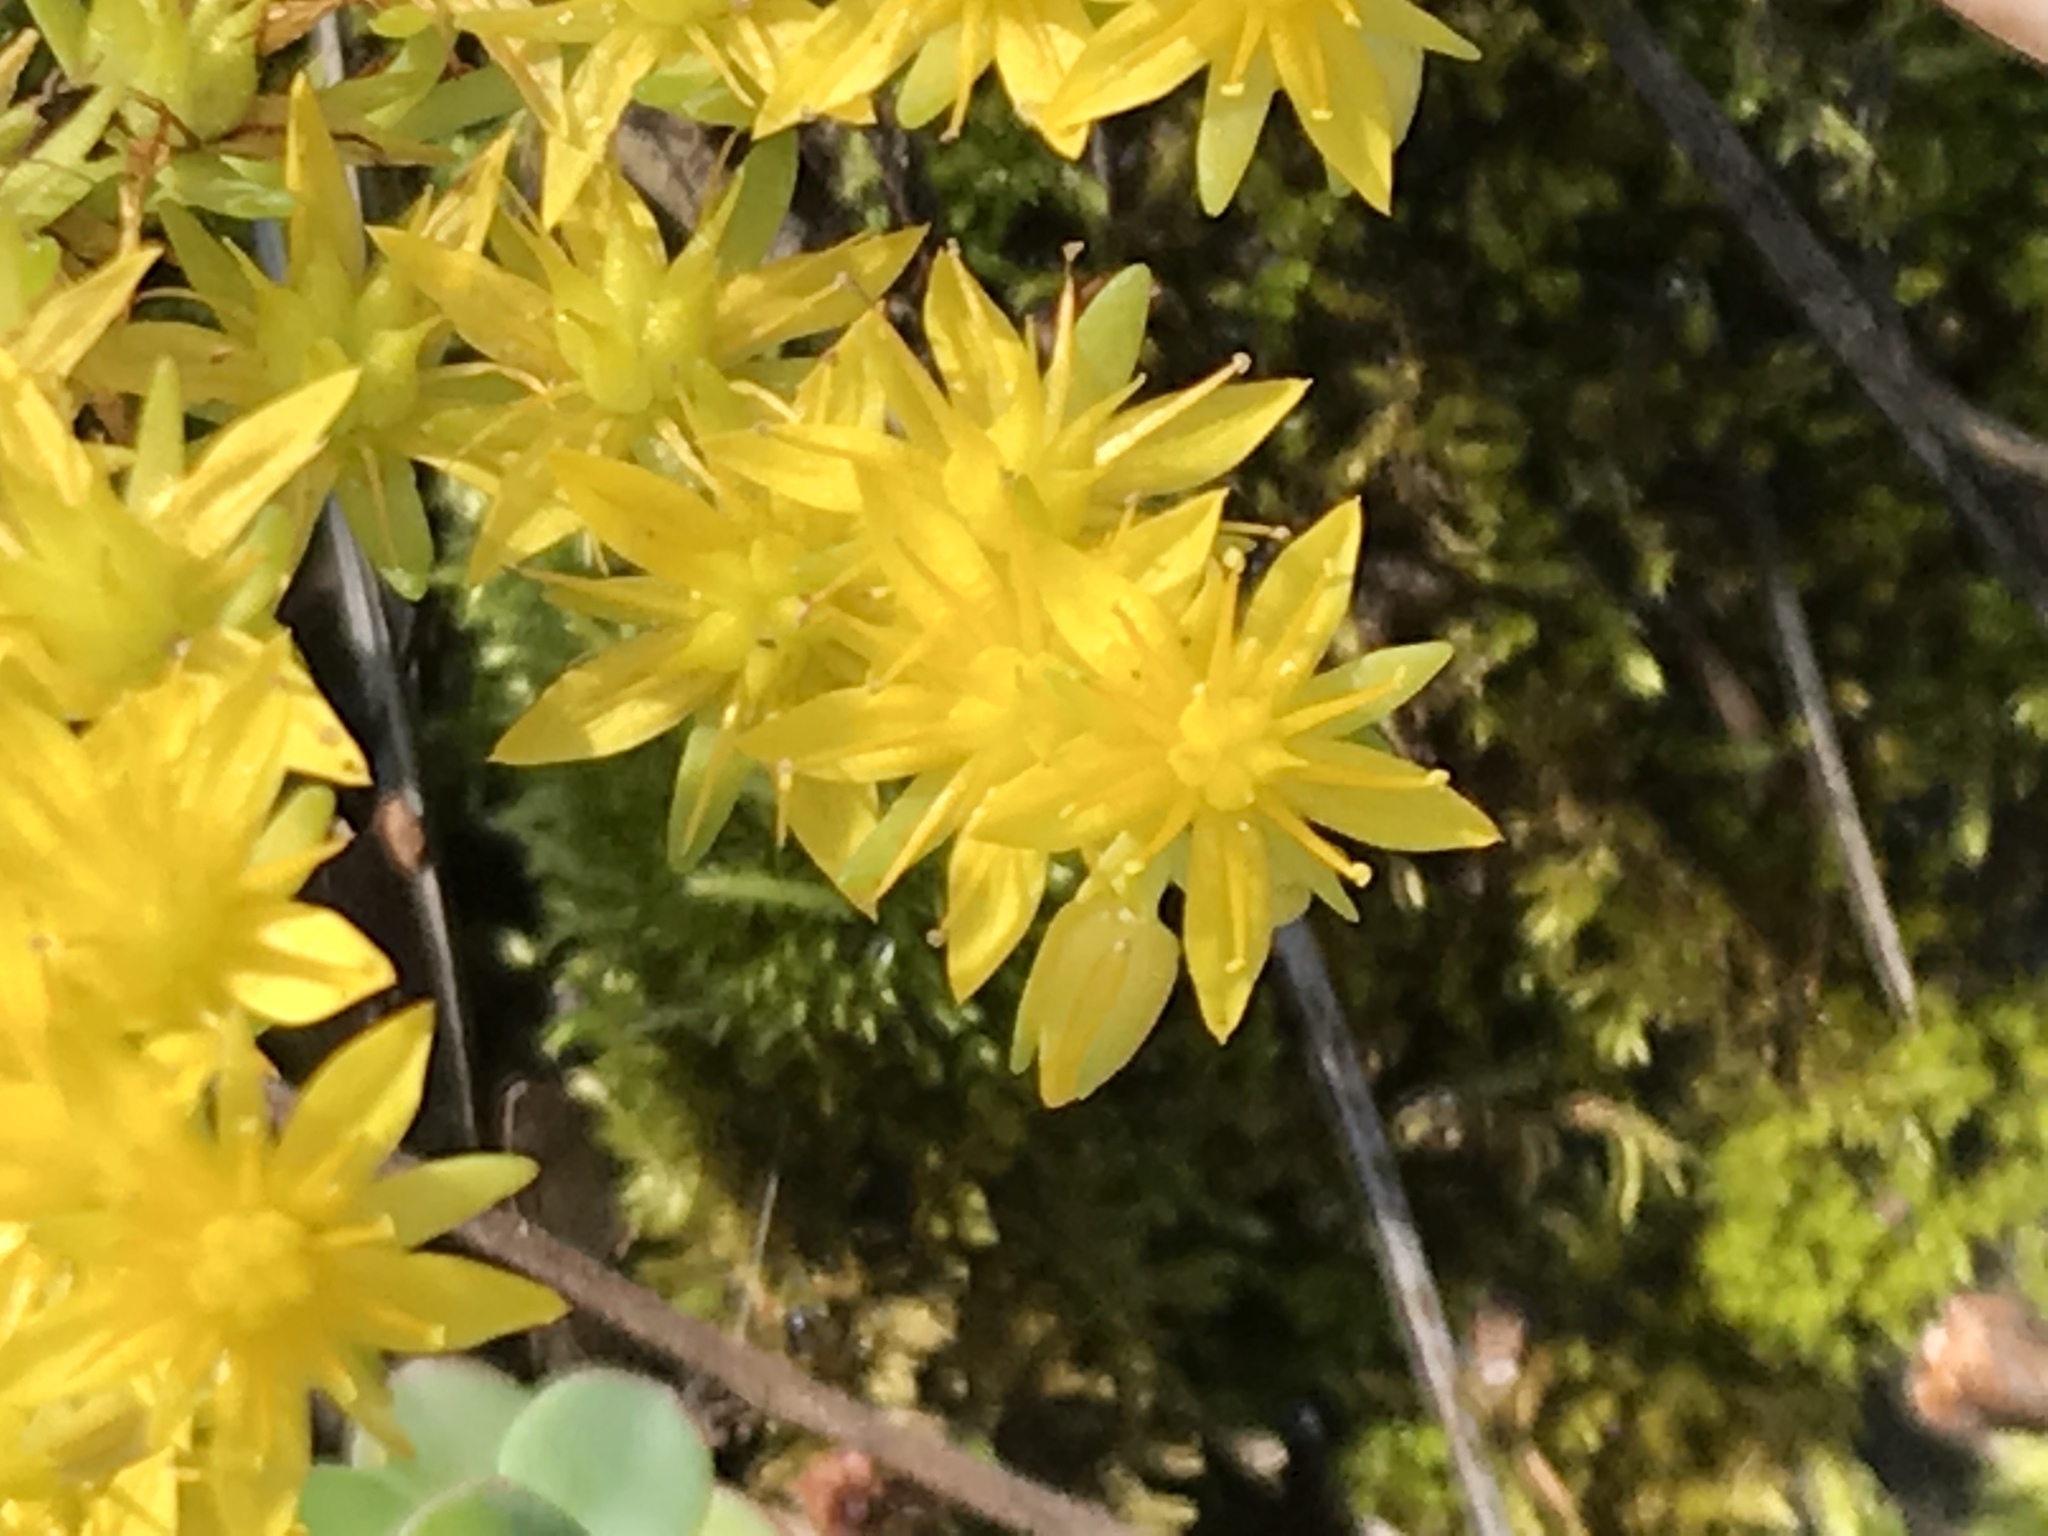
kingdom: Plantae
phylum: Tracheophyta
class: Magnoliopsida
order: Saxifragales
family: Crassulaceae
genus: Sedum
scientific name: Sedum palmeri
